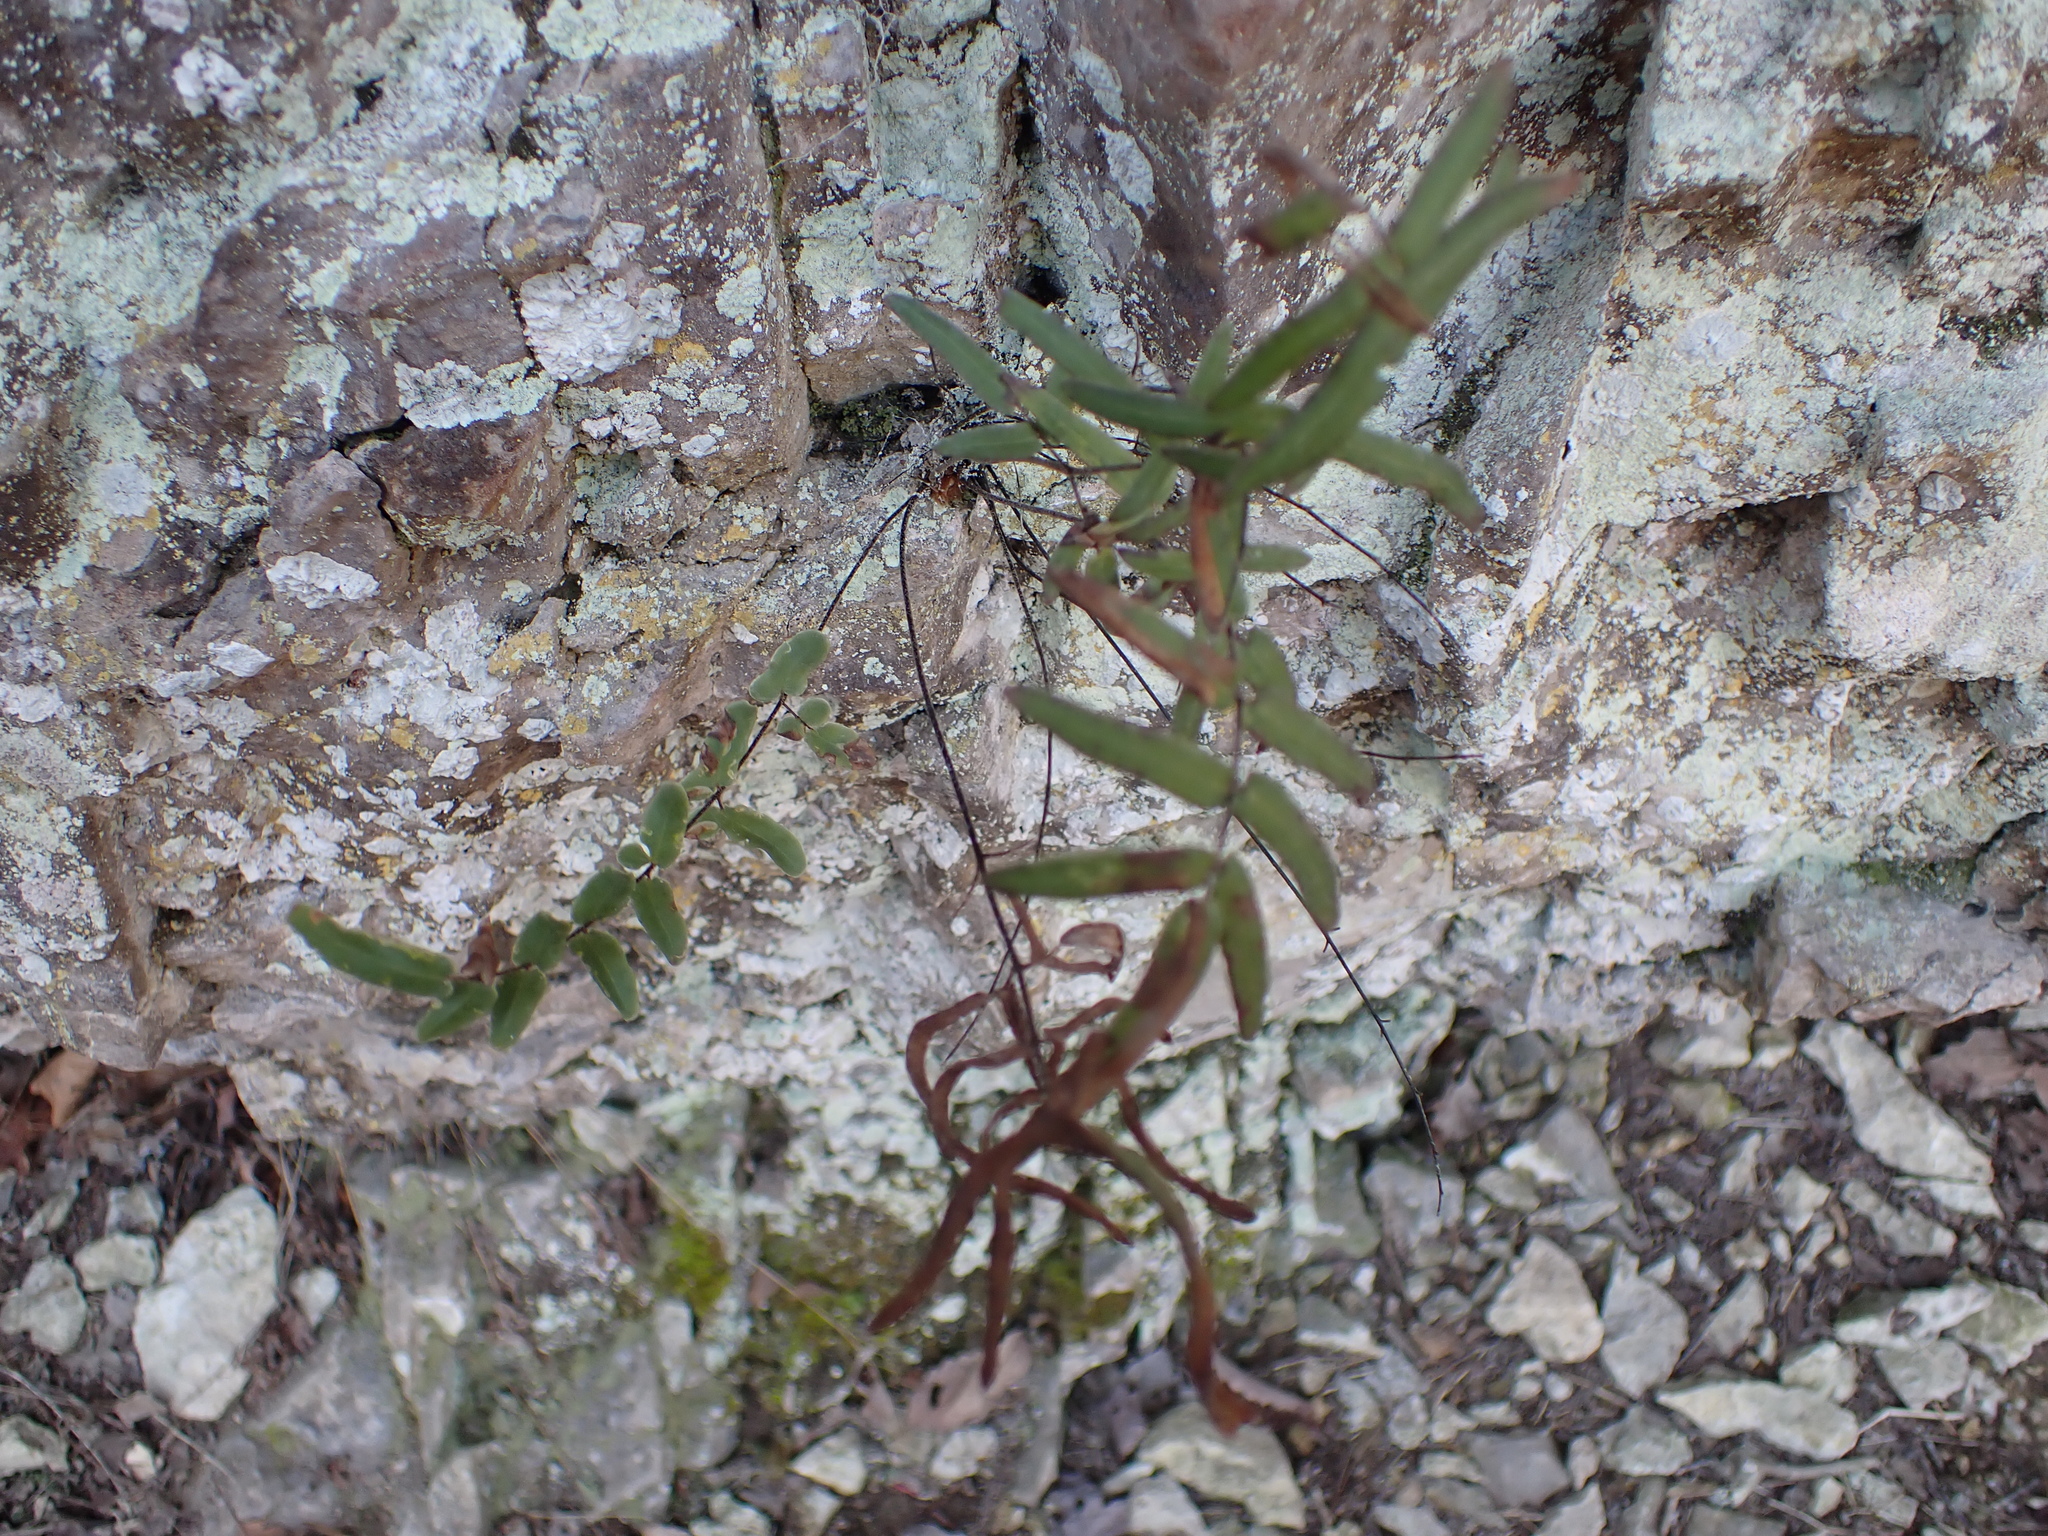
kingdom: Plantae
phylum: Tracheophyta
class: Polypodiopsida
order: Polypodiales
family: Pteridaceae
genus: Pellaea
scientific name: Pellaea atropurpurea
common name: Hairy cliffbrake
